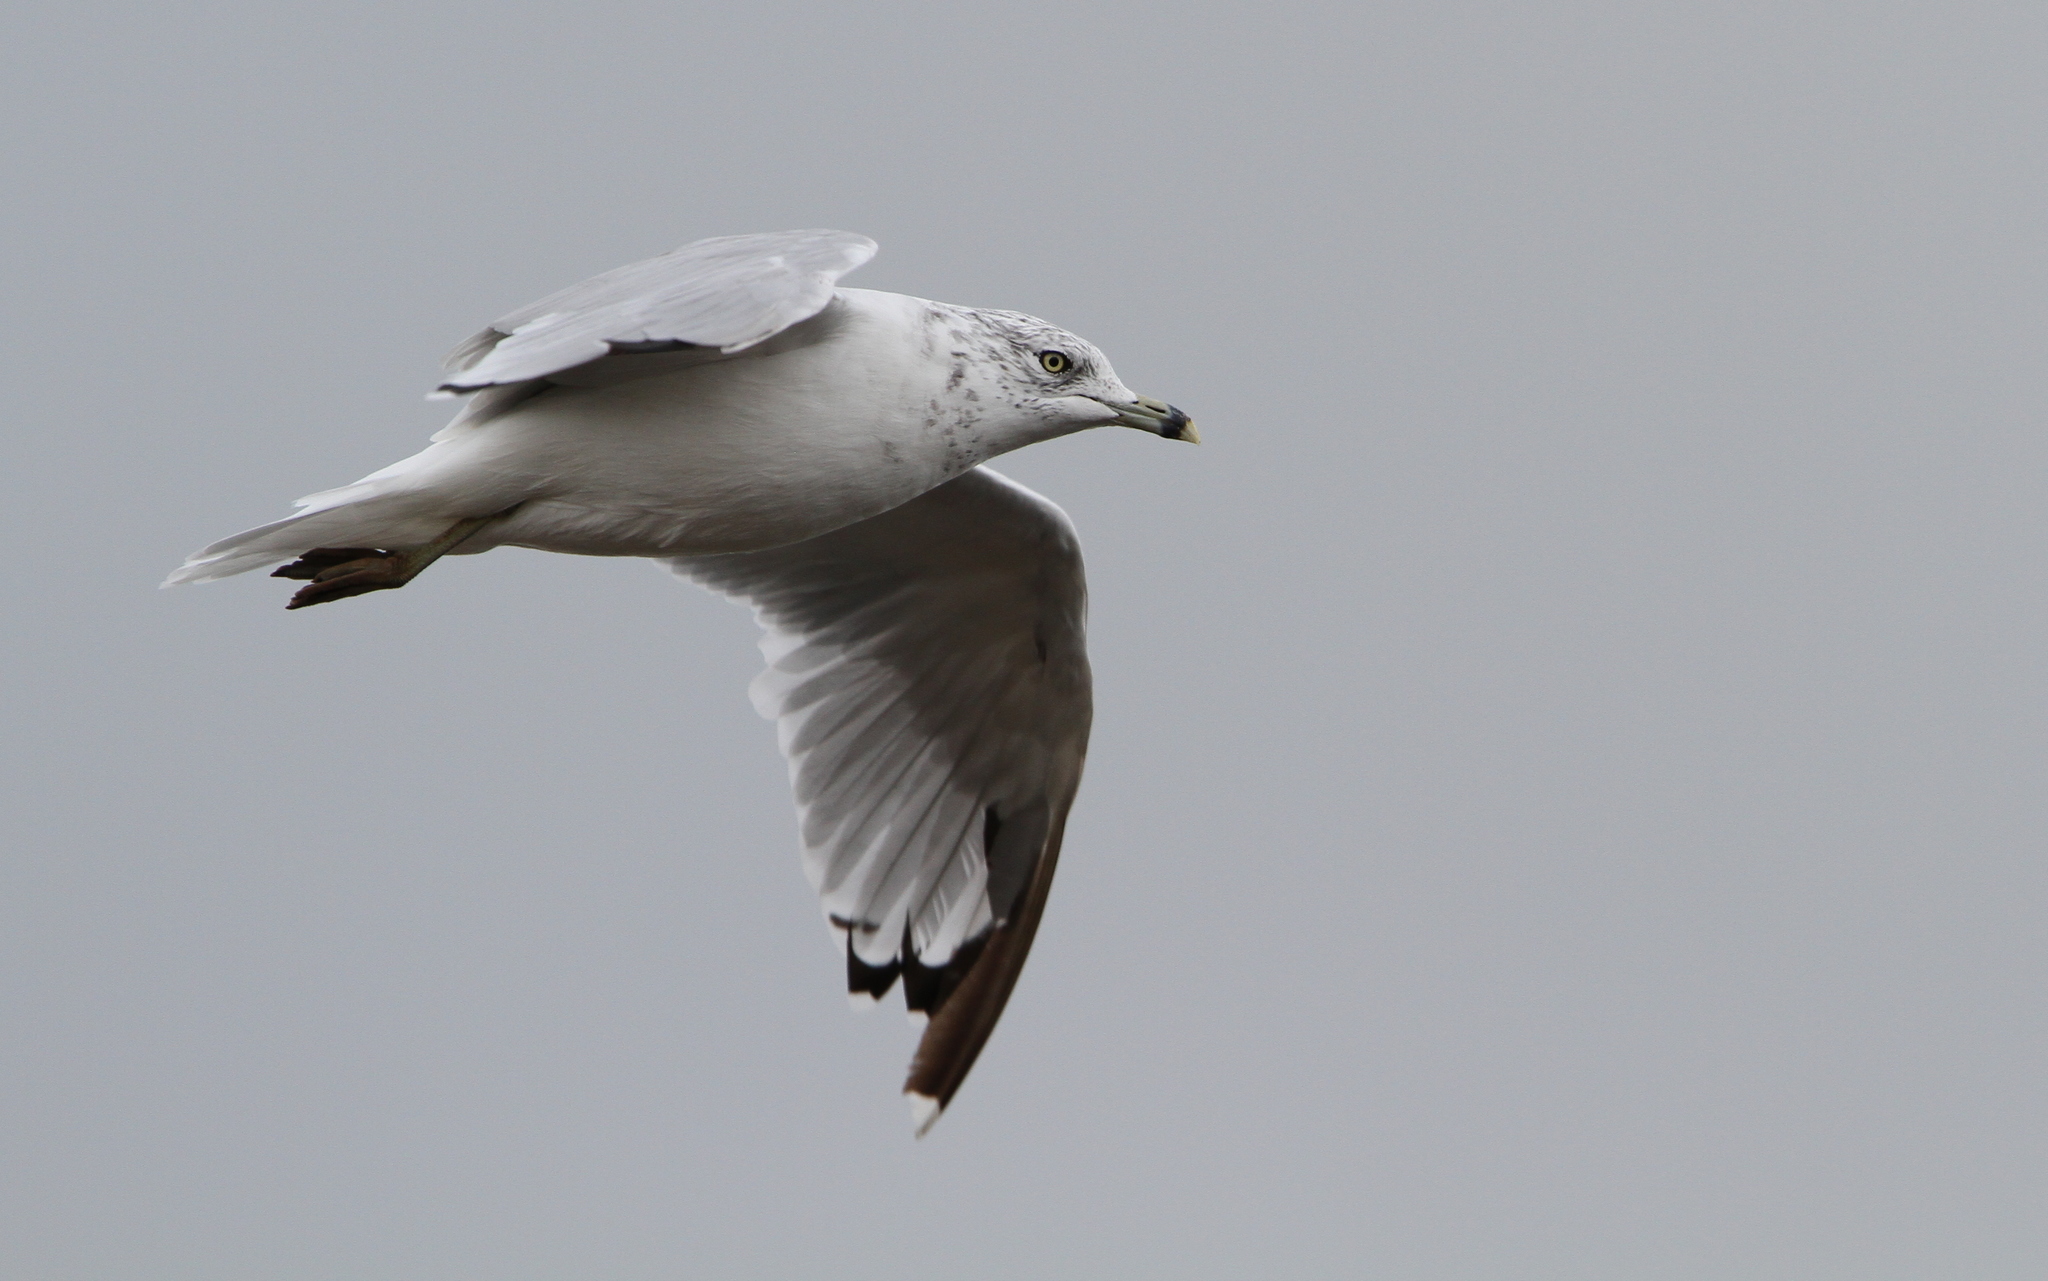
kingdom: Animalia
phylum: Chordata
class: Aves
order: Charadriiformes
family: Laridae
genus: Larus
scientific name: Larus delawarensis
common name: Ring-billed gull
